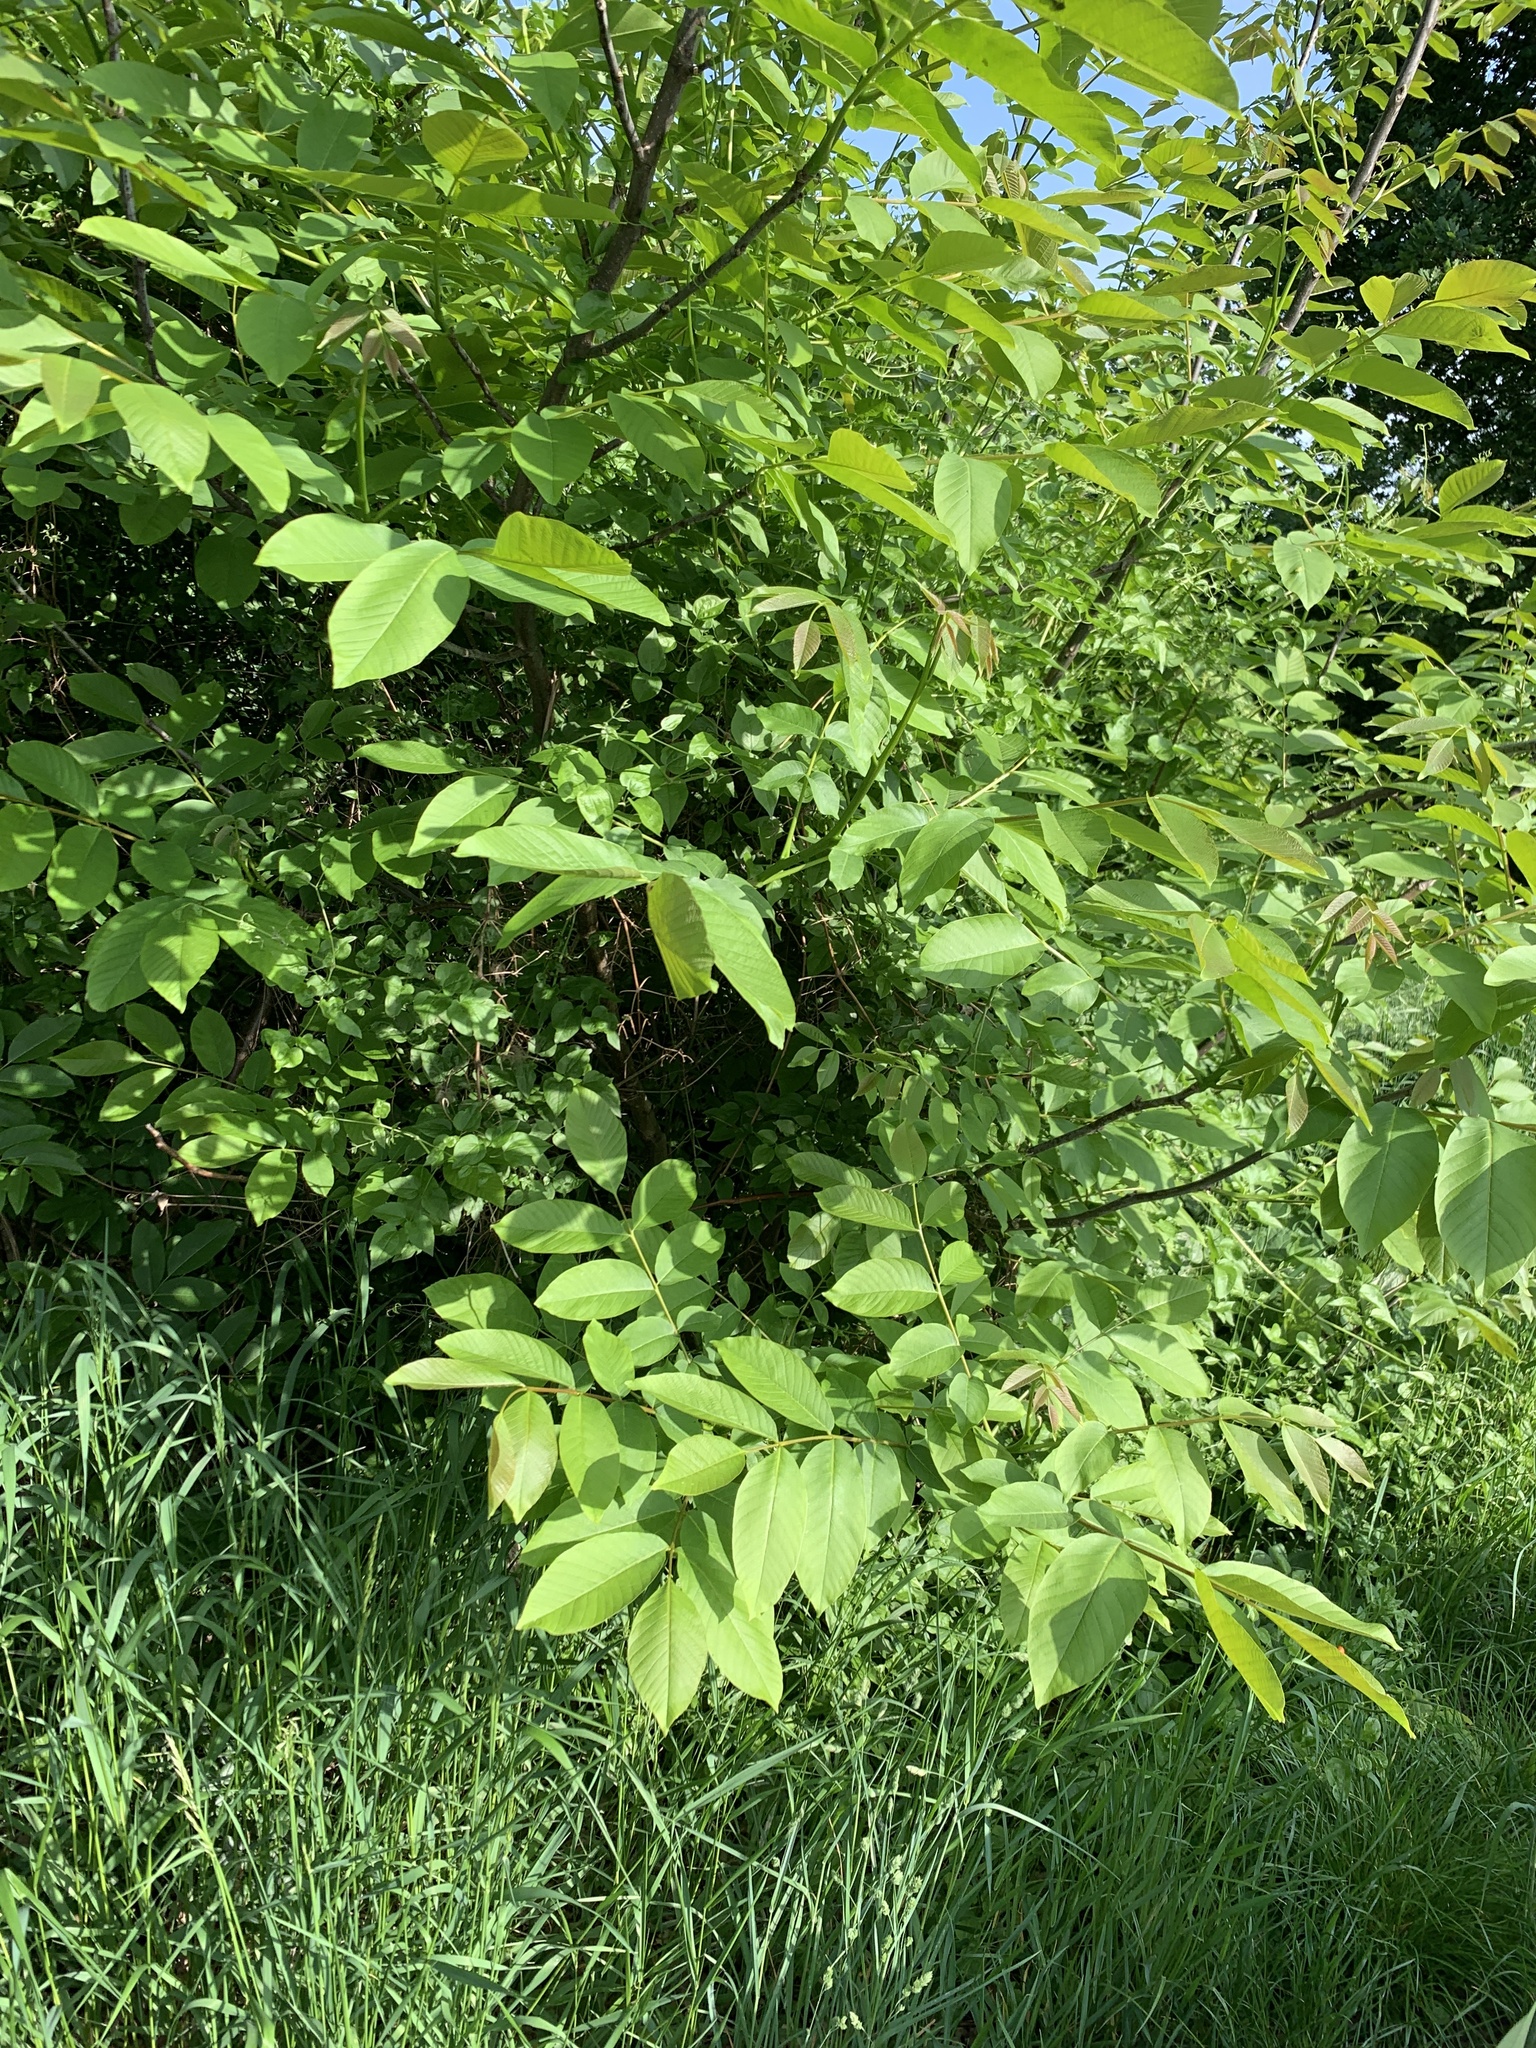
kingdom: Plantae
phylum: Tracheophyta
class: Magnoliopsida
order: Fagales
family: Juglandaceae
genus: Juglans
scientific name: Juglans regia
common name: Walnut
